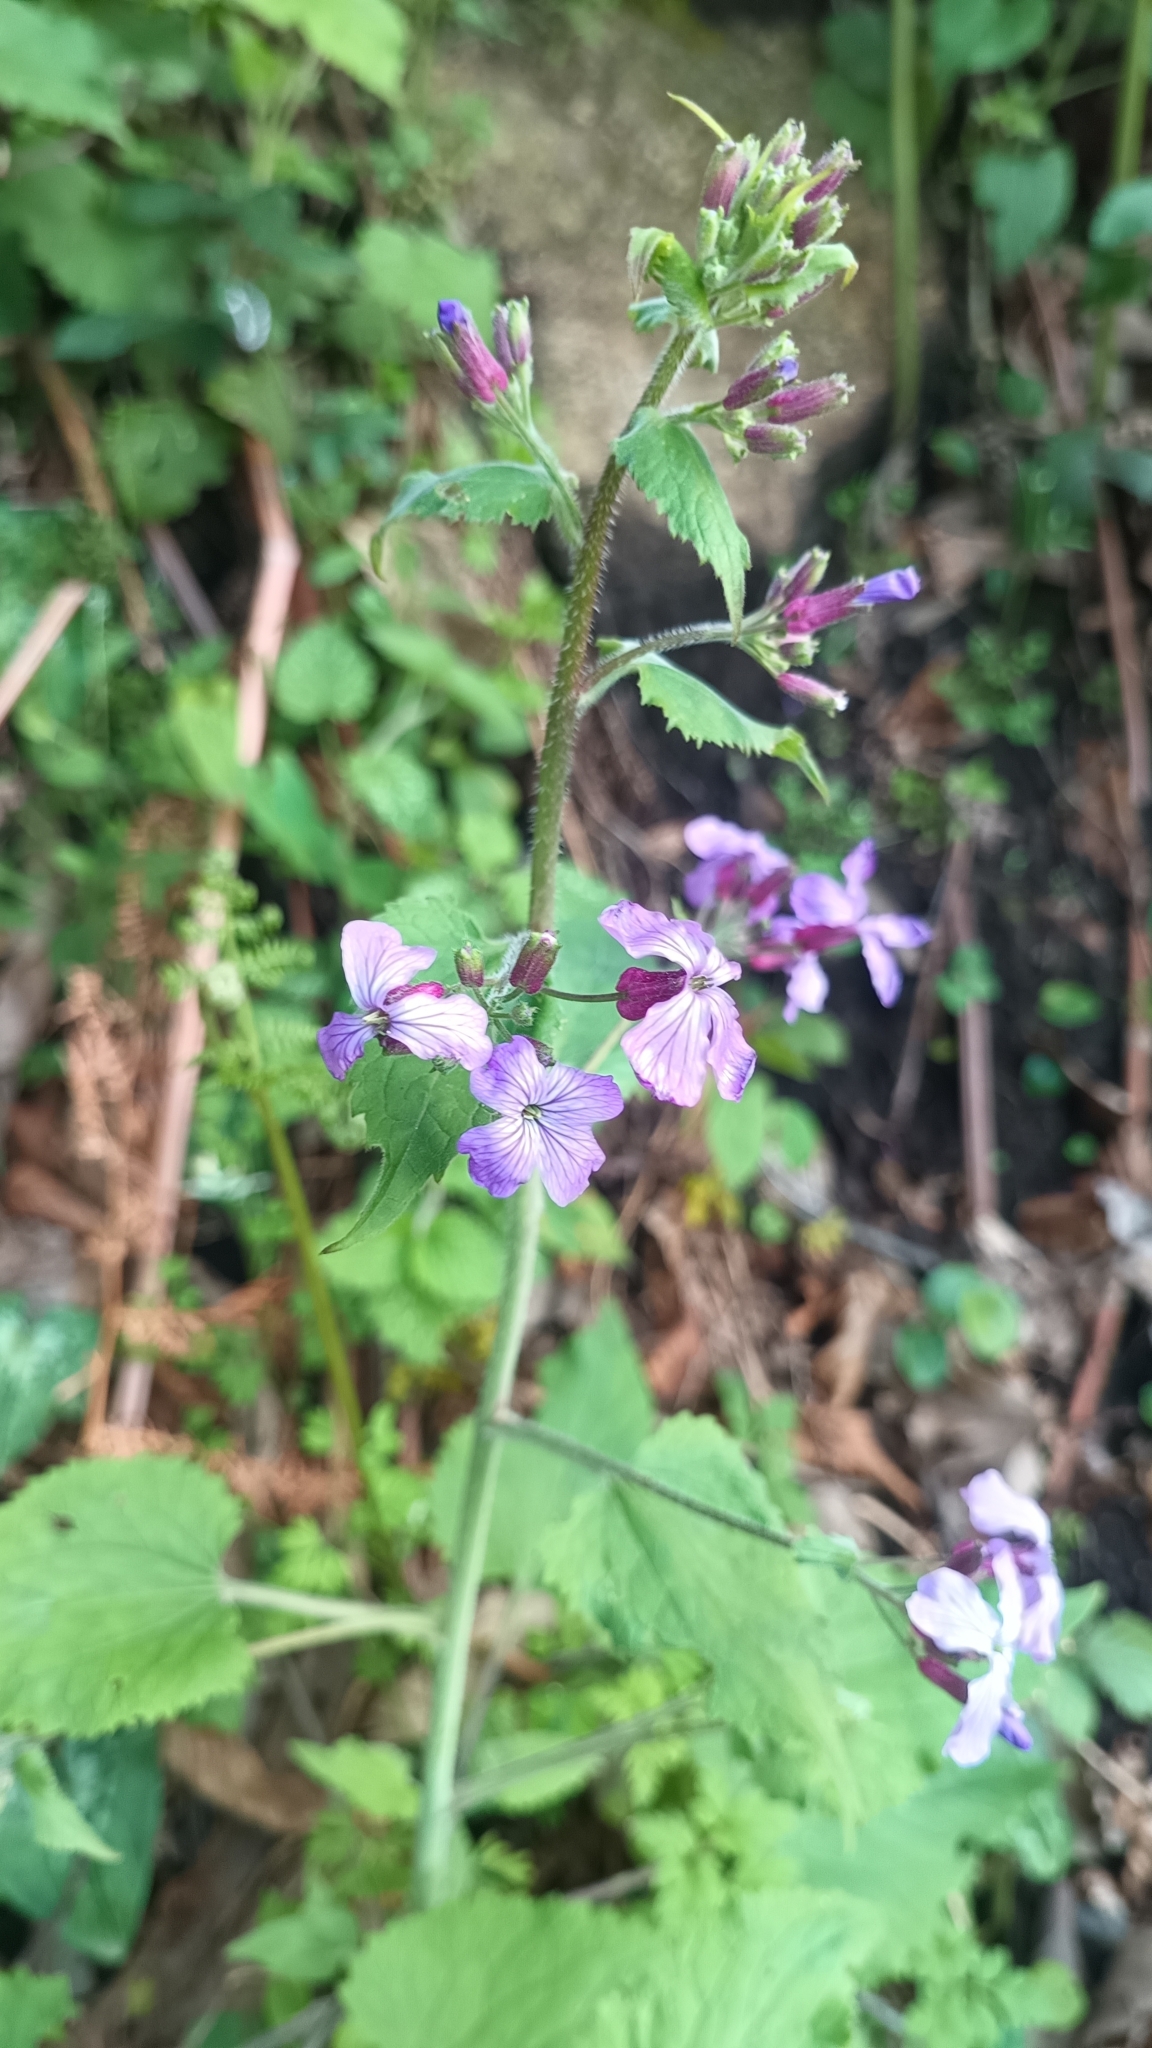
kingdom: Plantae
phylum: Tracheophyta
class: Magnoliopsida
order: Brassicales
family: Brassicaceae
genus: Lunaria
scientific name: Lunaria annua
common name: Honesty
